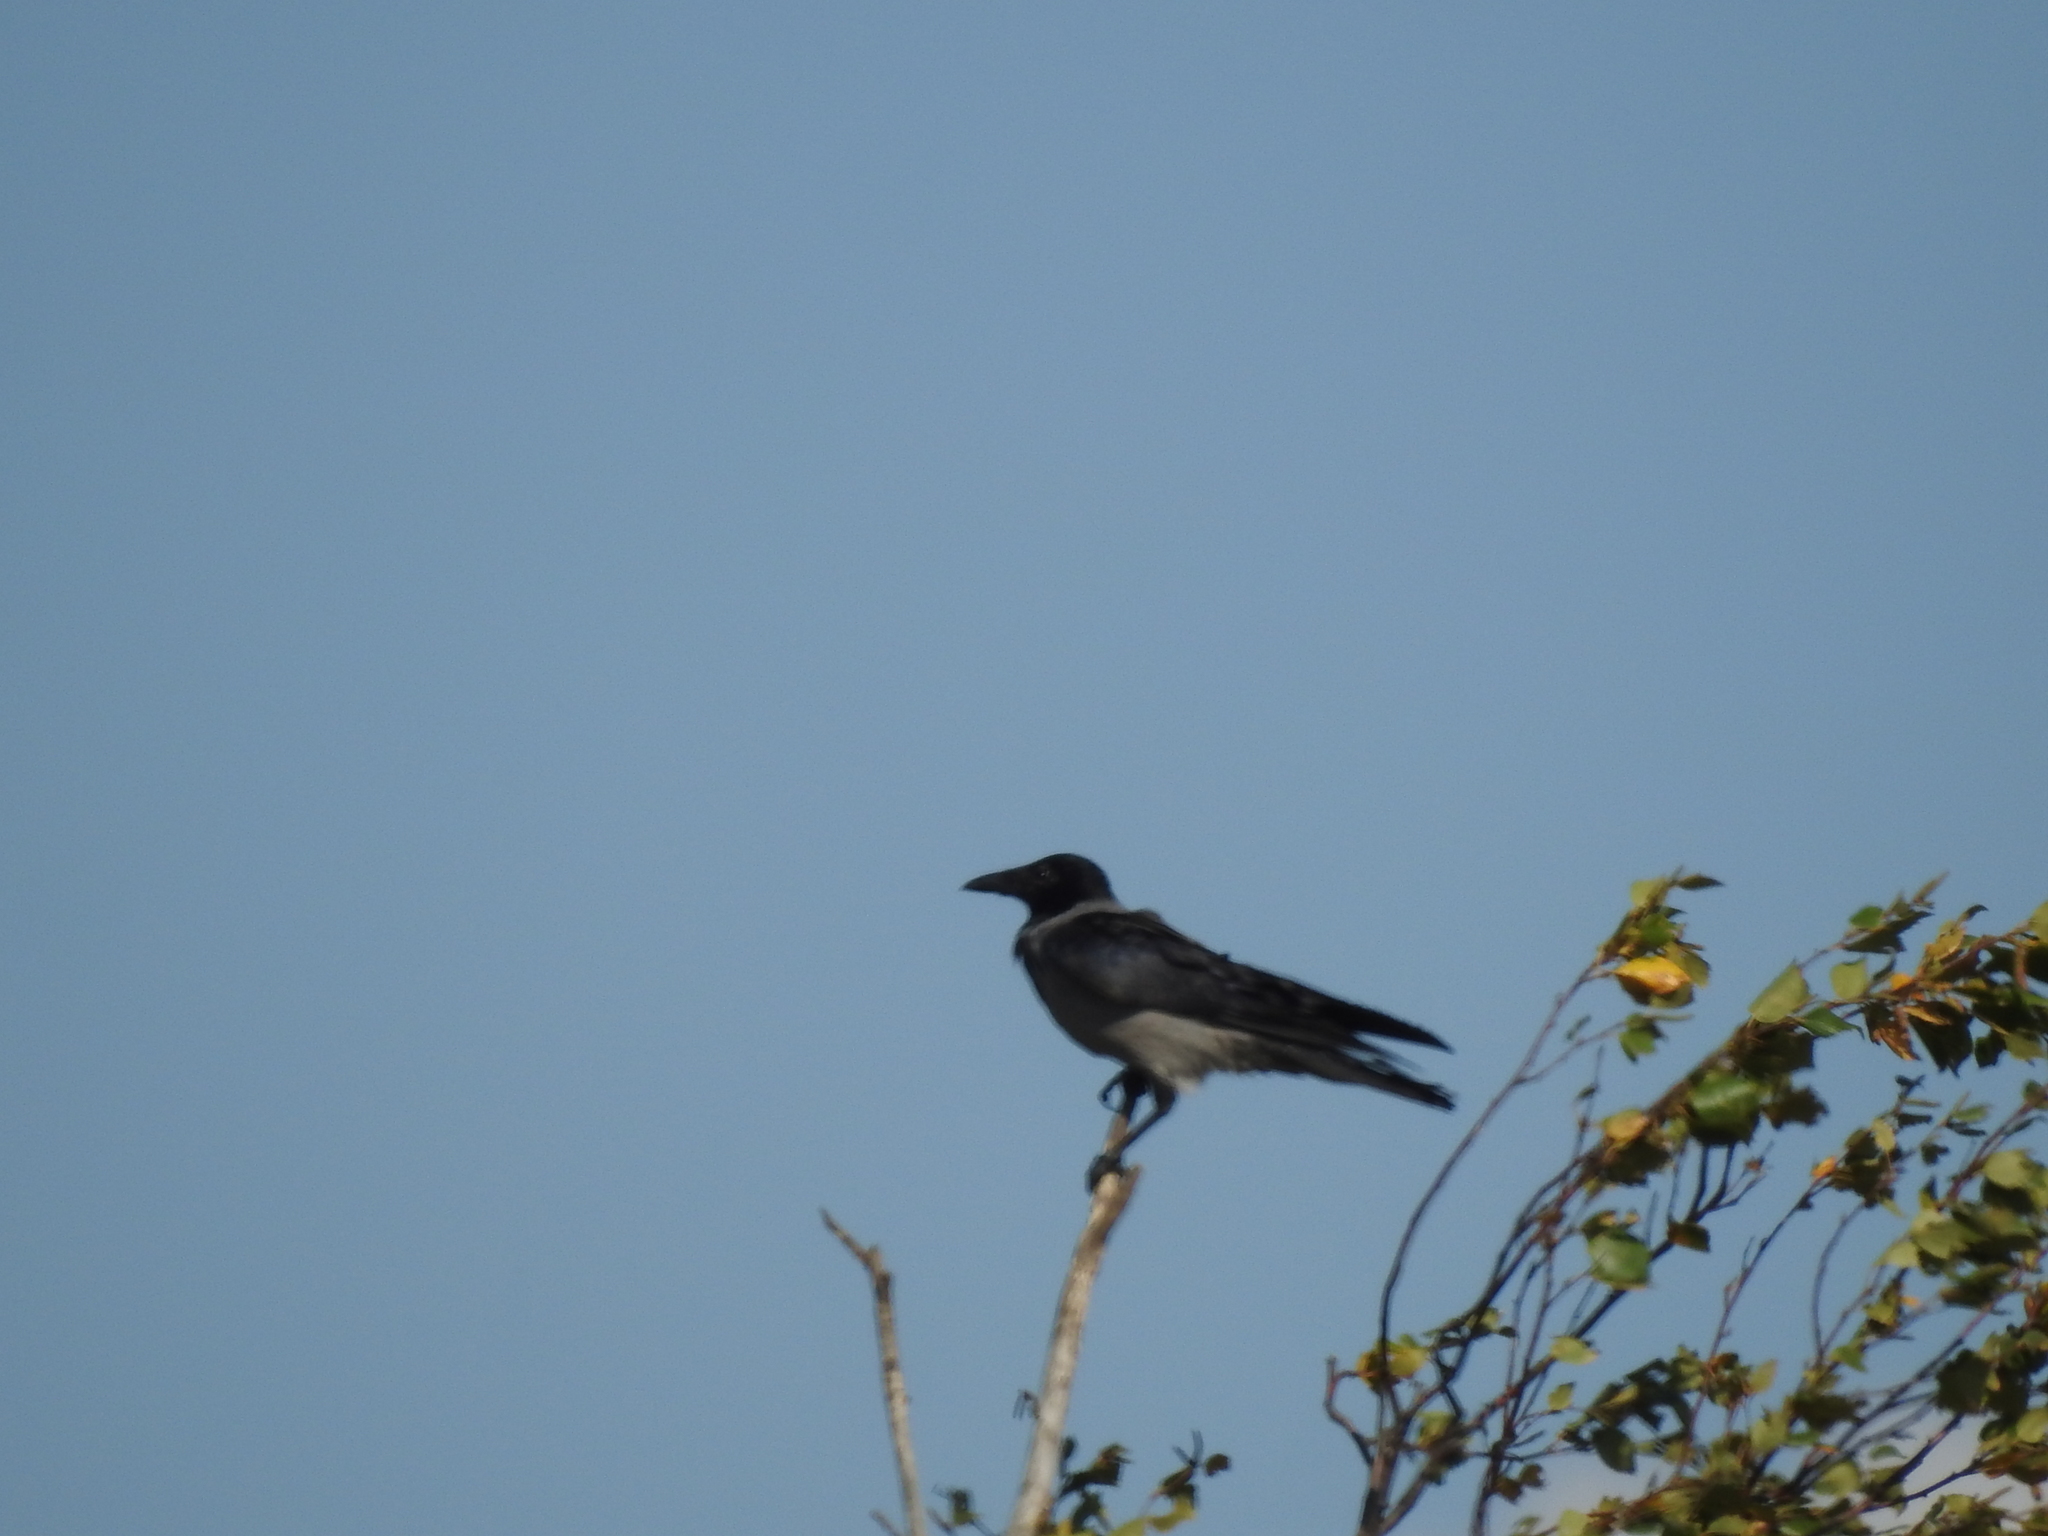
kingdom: Animalia
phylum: Chordata
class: Aves
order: Passeriformes
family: Corvidae
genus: Corvus
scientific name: Corvus cornix
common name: Hooded crow
